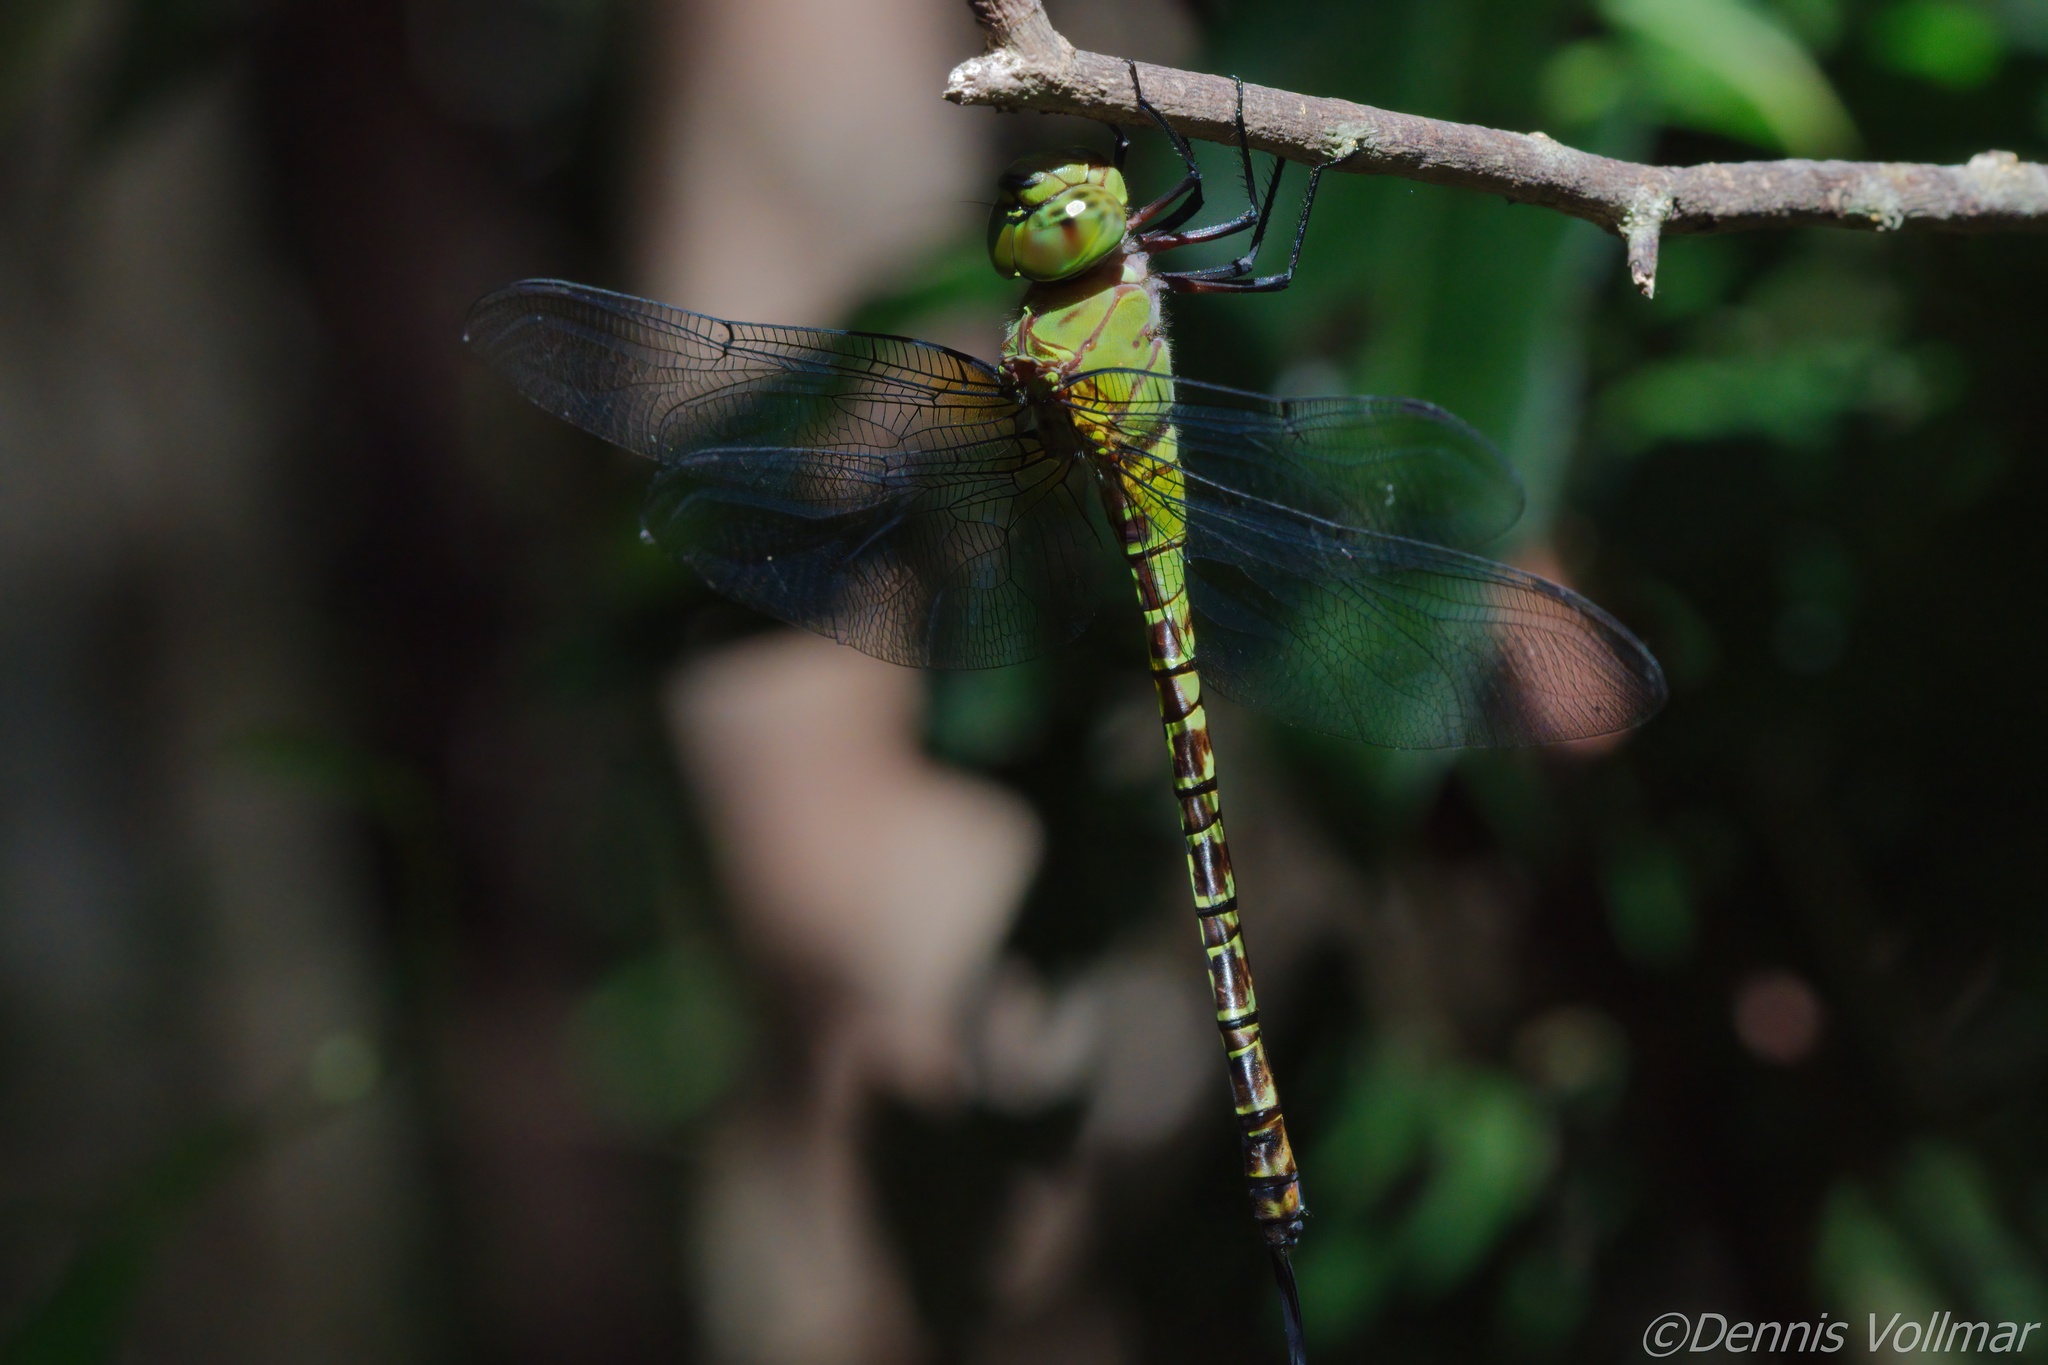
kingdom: Animalia
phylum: Arthropoda
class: Insecta
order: Odonata
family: Aeshnidae
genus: Coryphaeschna
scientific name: Coryphaeschna viriditas
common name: Mangrove darner
